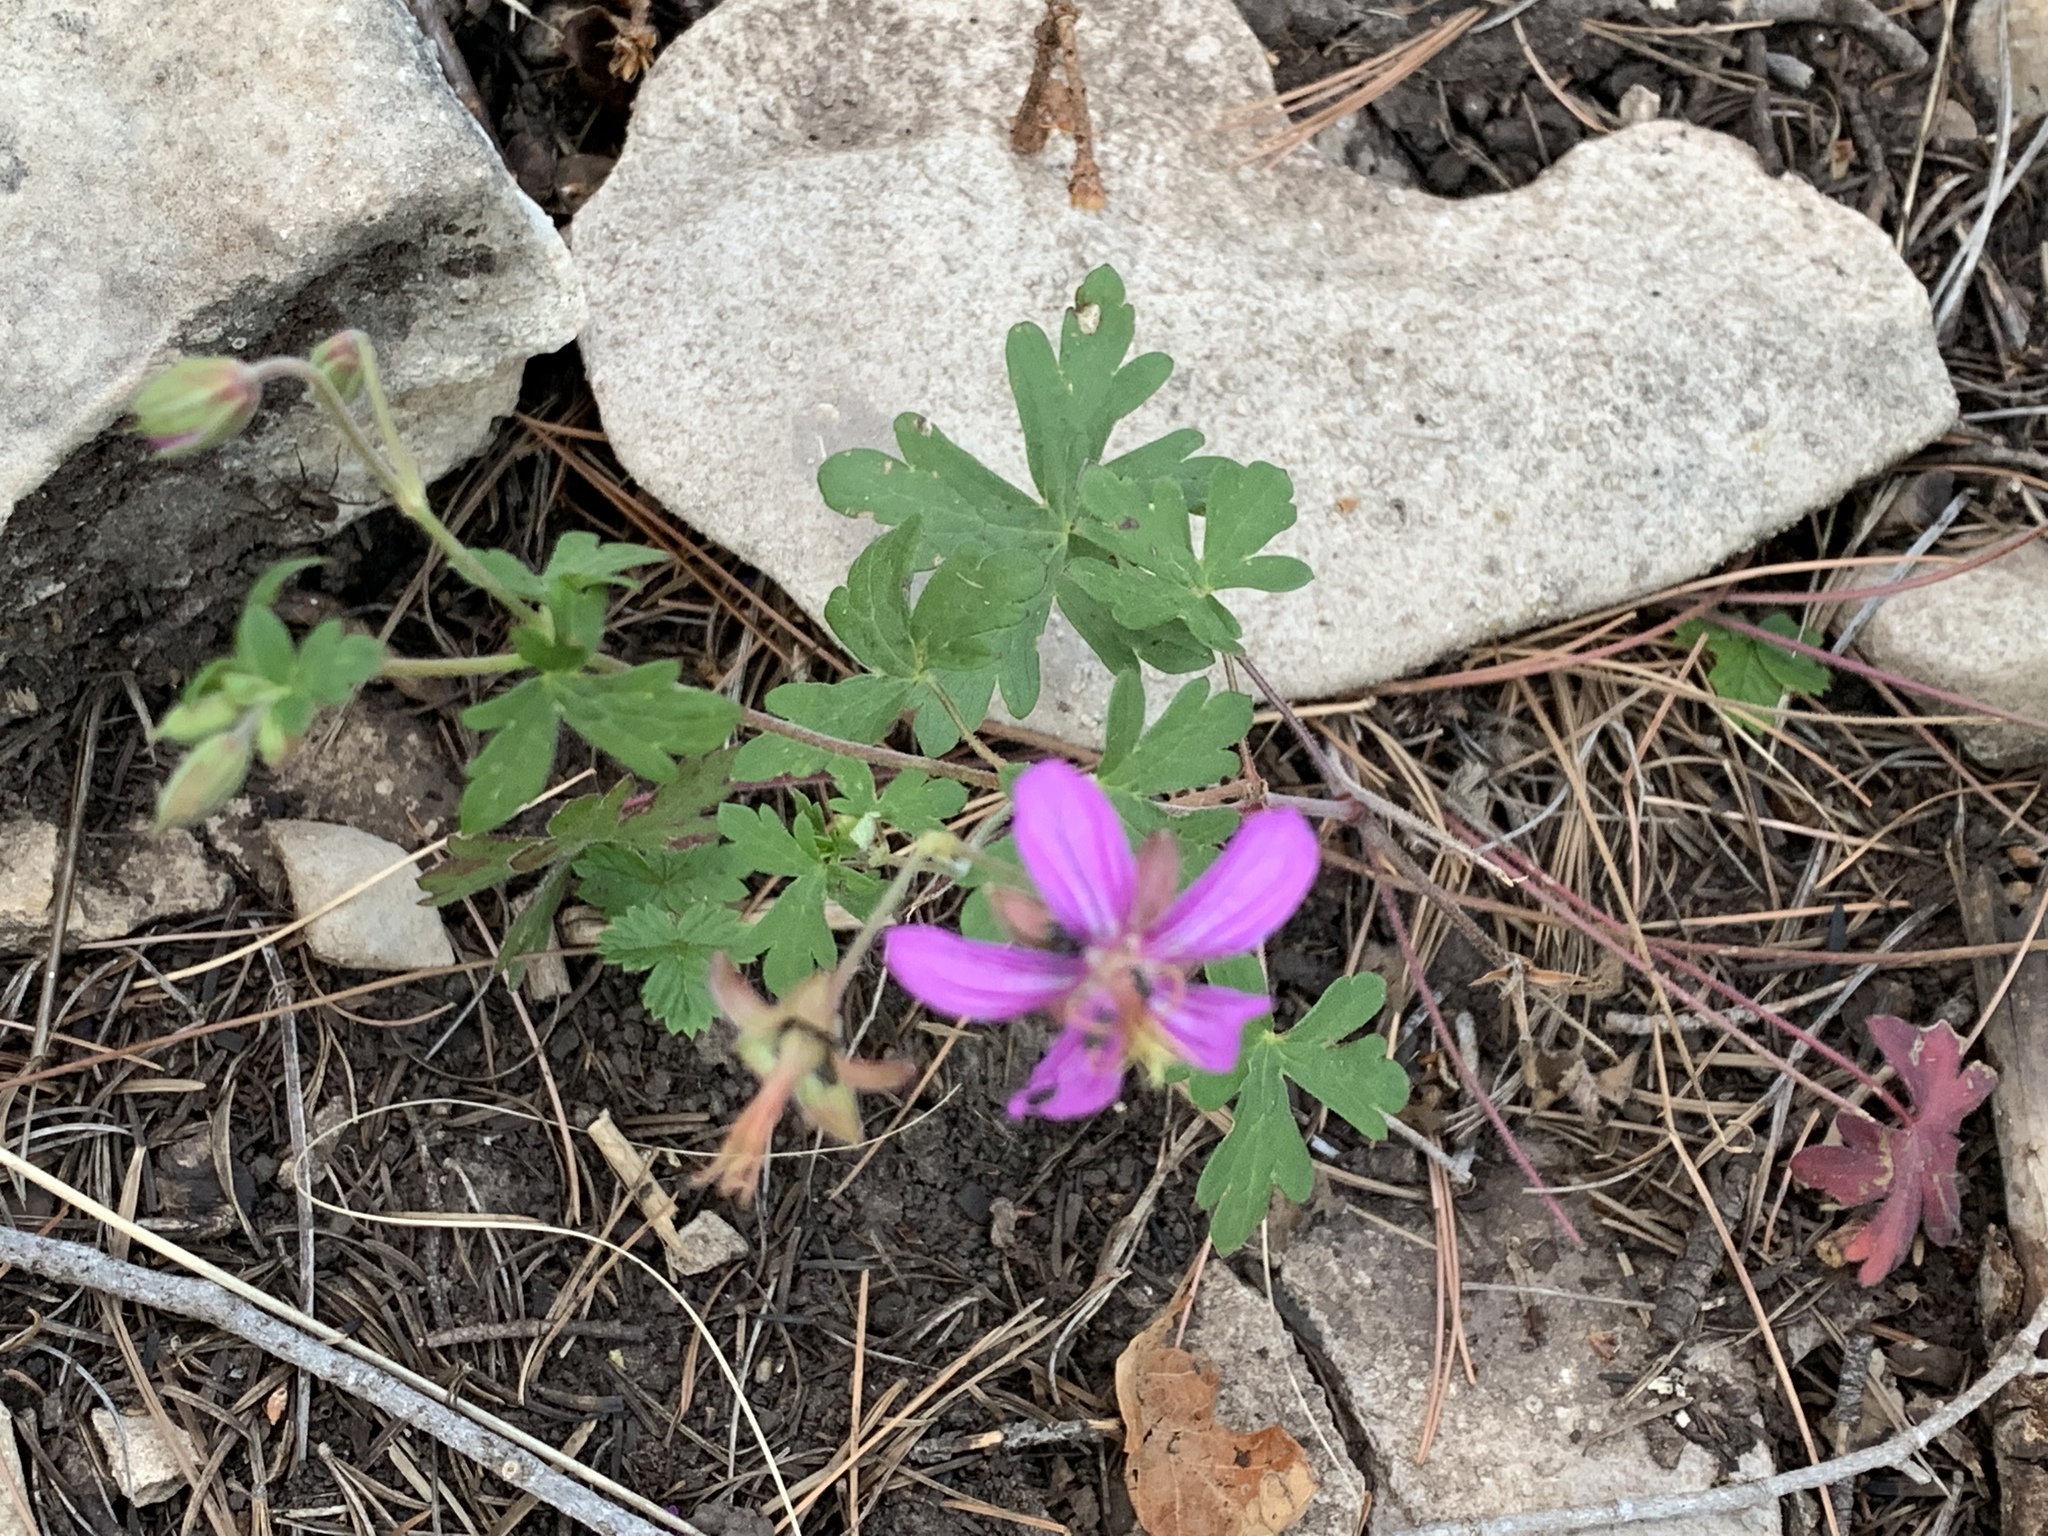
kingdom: Plantae
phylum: Tracheophyta
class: Magnoliopsida
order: Geraniales
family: Geraniaceae
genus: Geranium
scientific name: Geranium caespitosum
